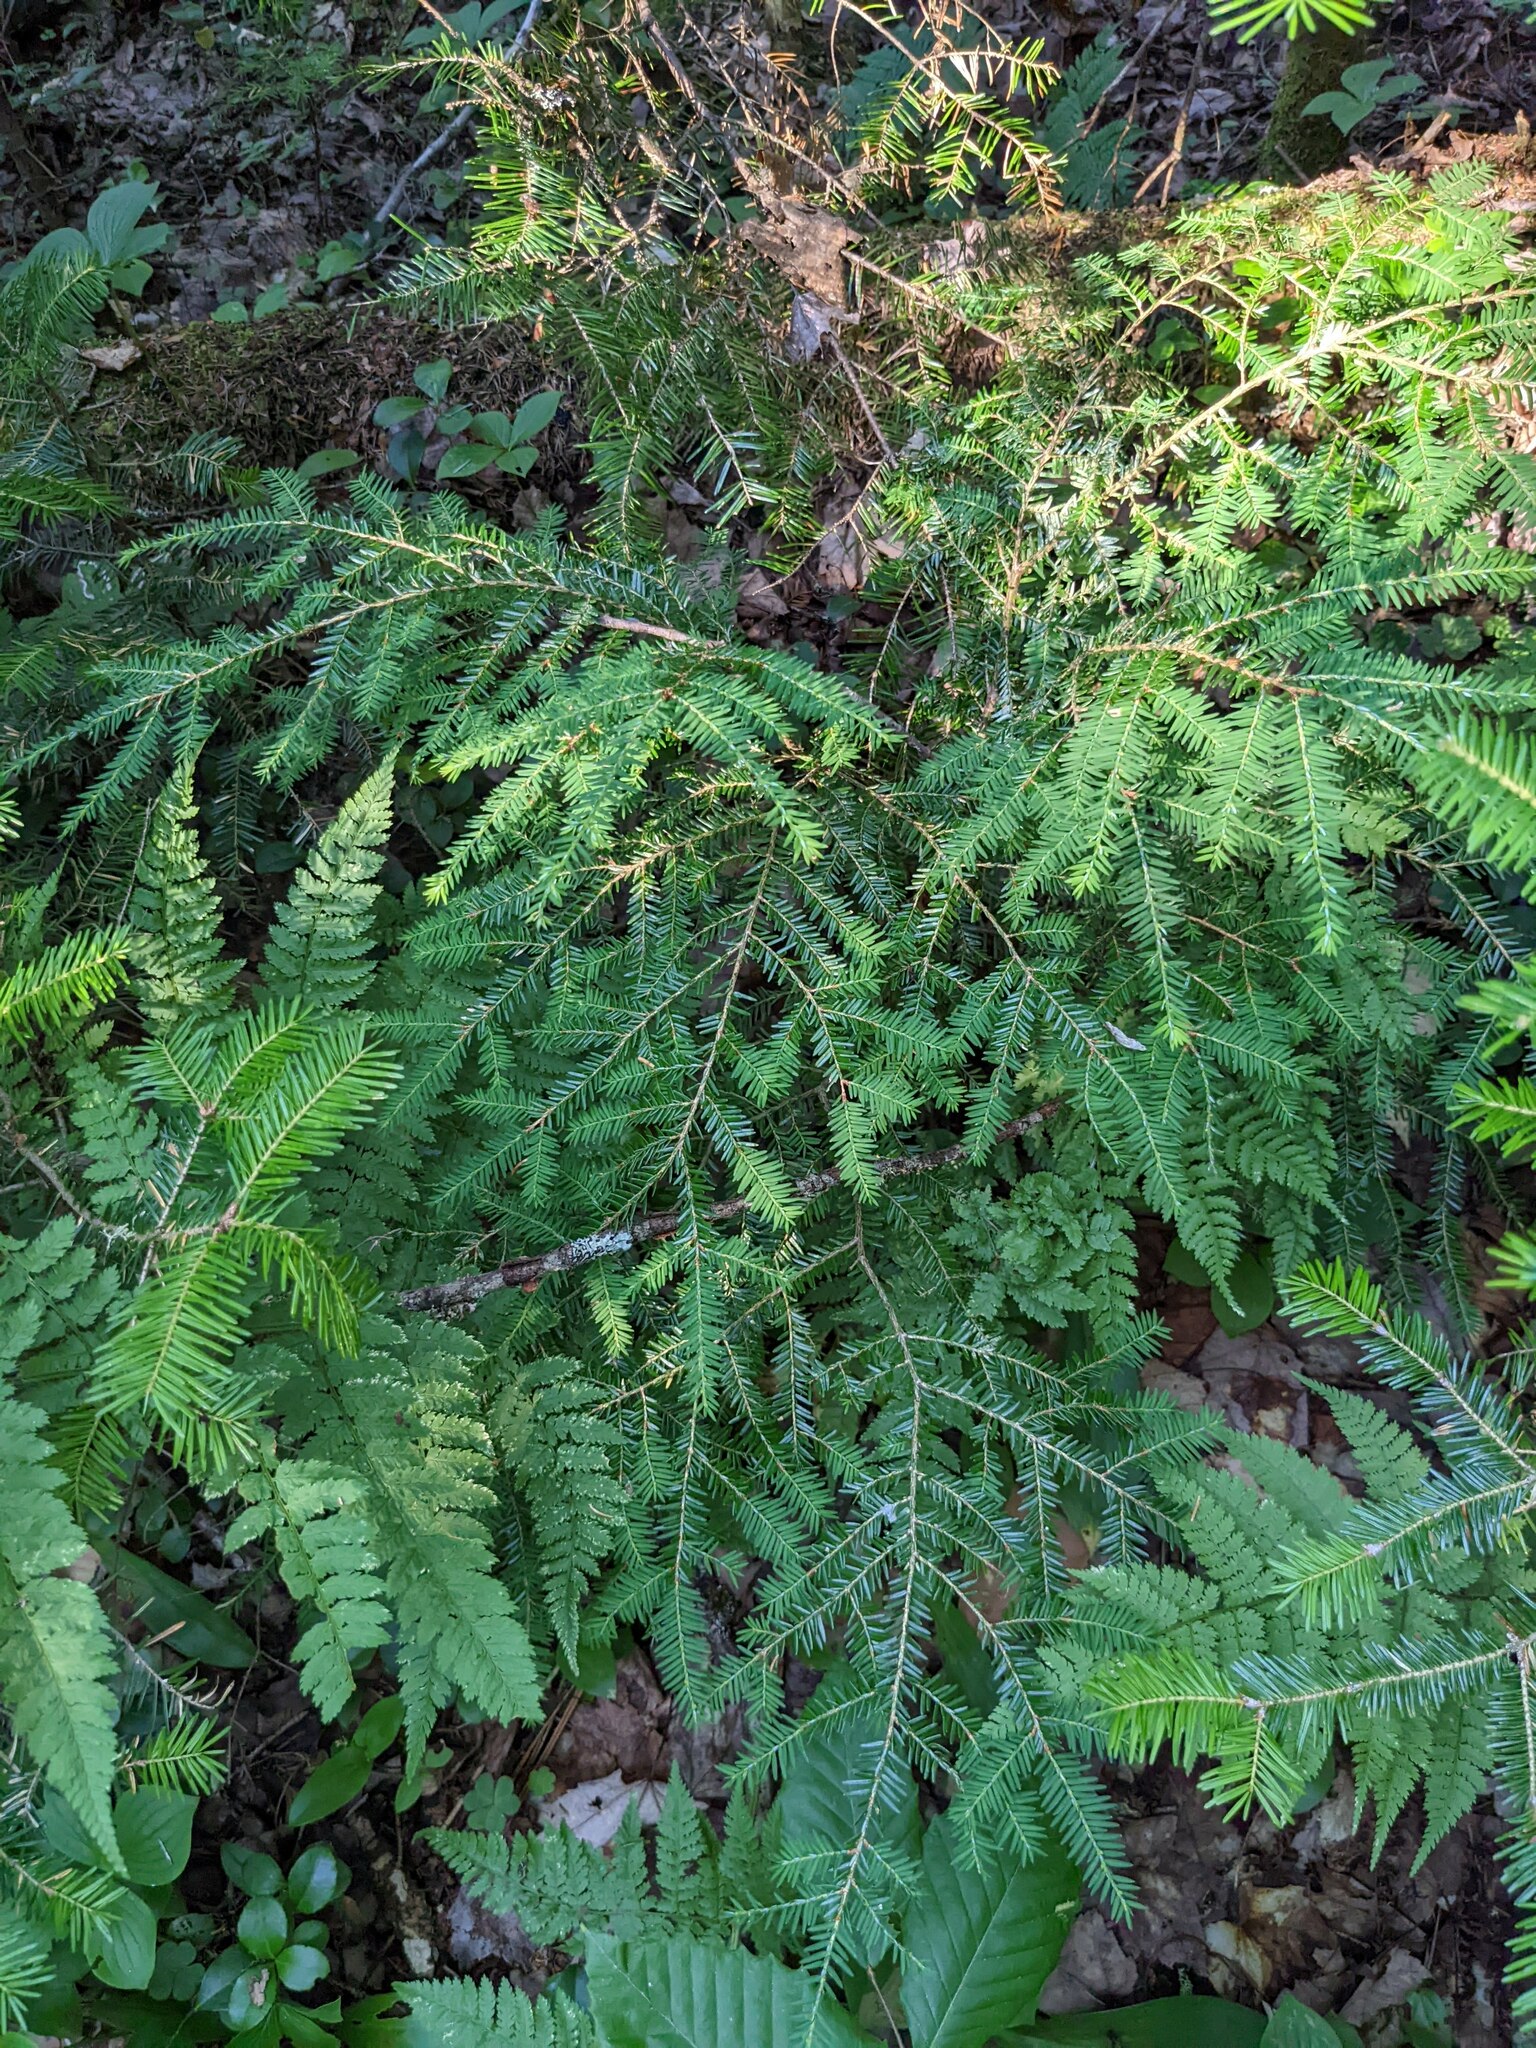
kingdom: Plantae
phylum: Tracheophyta
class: Pinopsida
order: Pinales
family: Pinaceae
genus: Tsuga
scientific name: Tsuga canadensis
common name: Eastern hemlock
